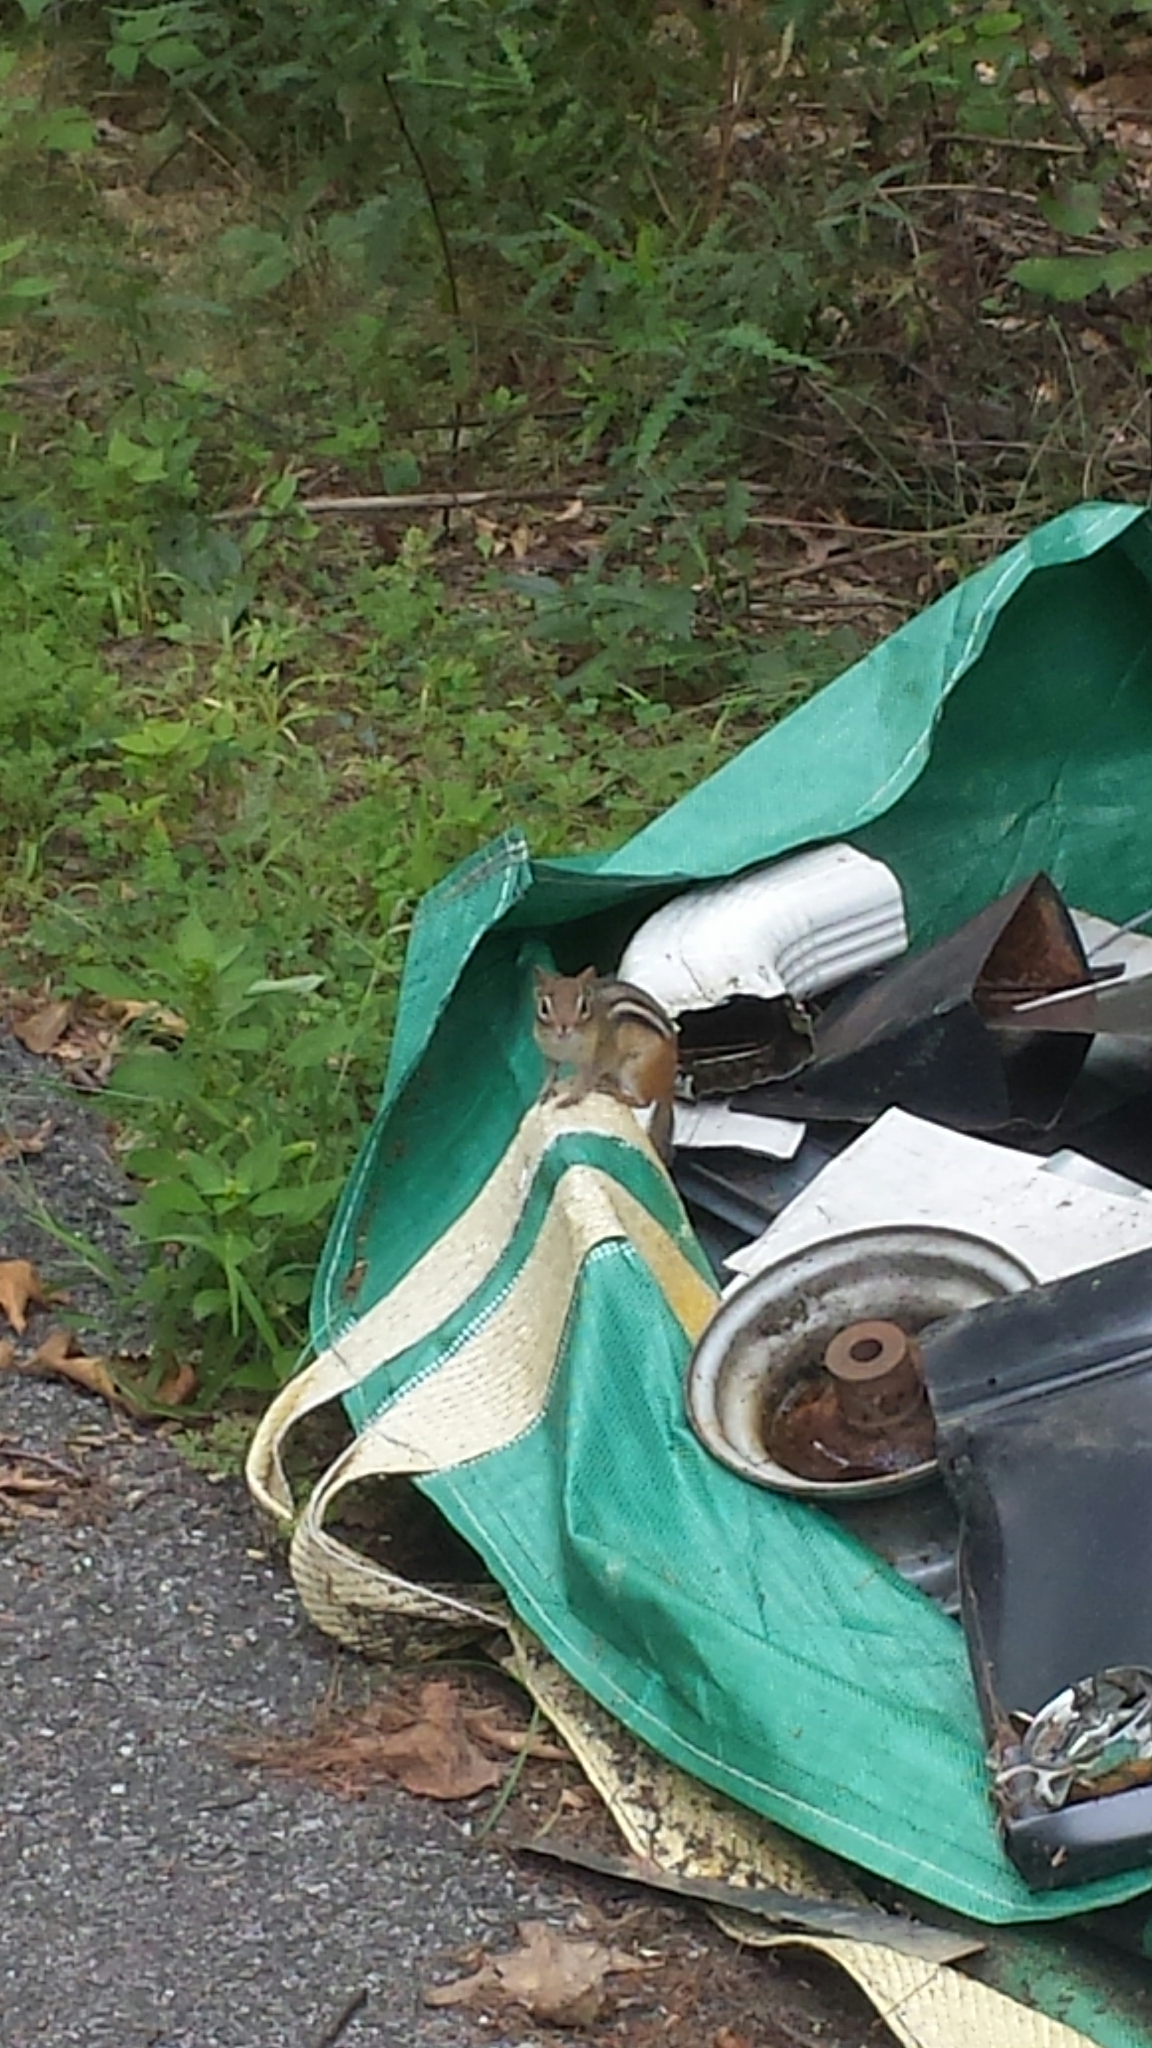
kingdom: Animalia
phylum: Chordata
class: Mammalia
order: Rodentia
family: Sciuridae
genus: Tamias
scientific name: Tamias striatus
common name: Eastern chipmunk
